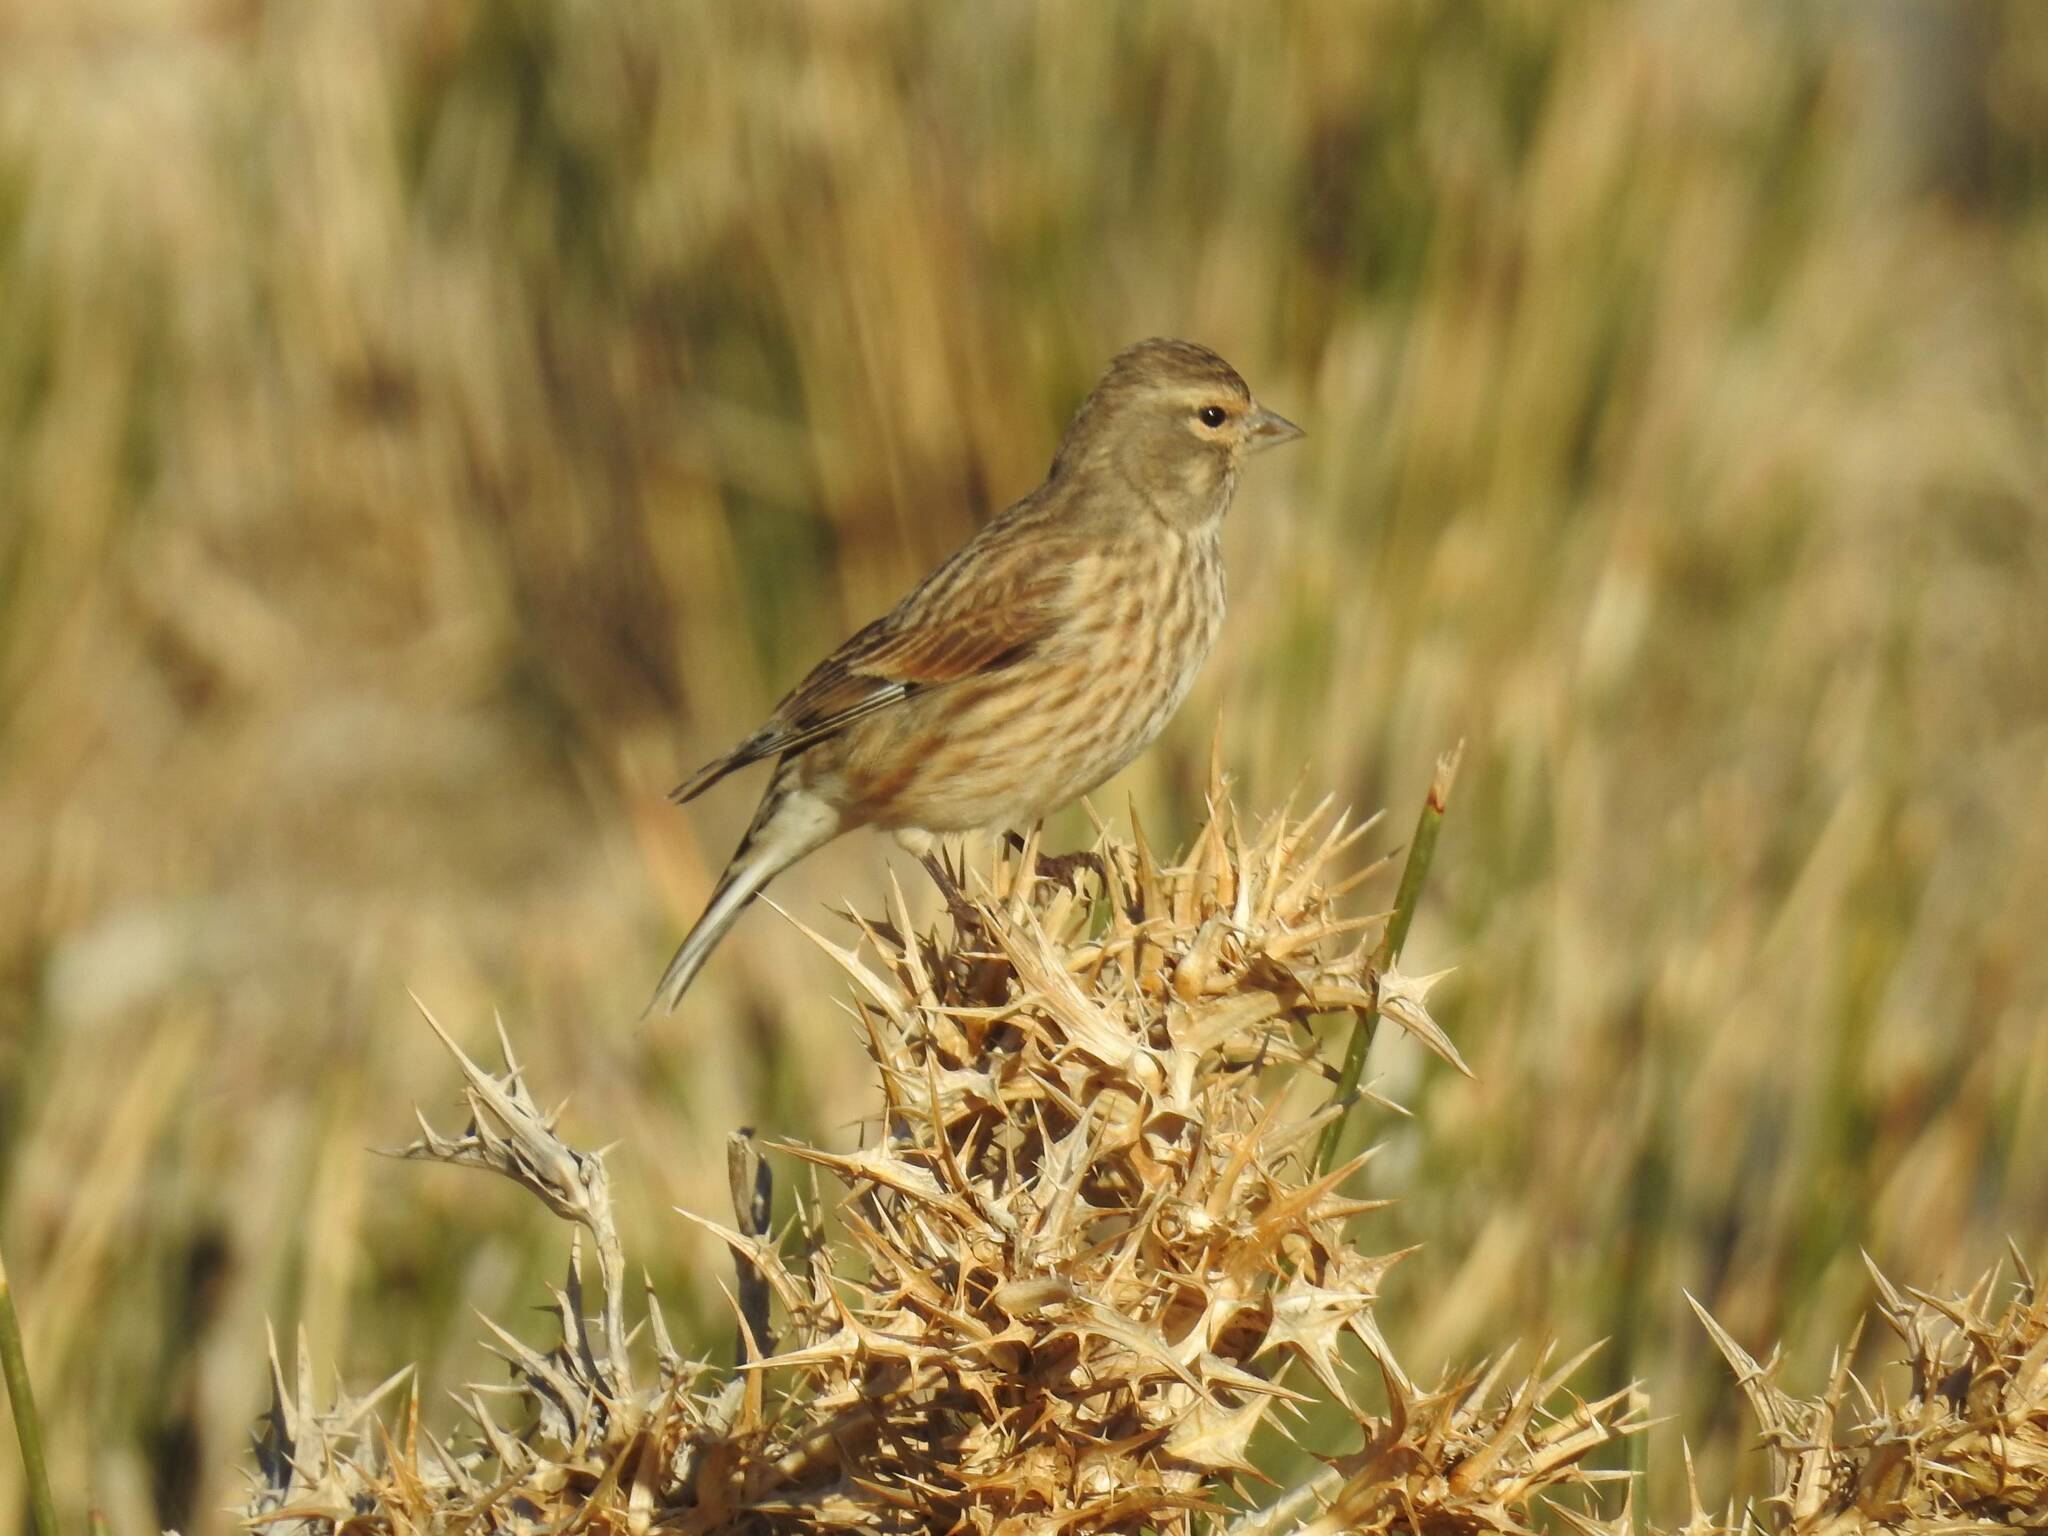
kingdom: Animalia
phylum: Chordata
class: Aves
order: Passeriformes
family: Fringillidae
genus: Linaria
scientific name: Linaria cannabina
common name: Common linnet
